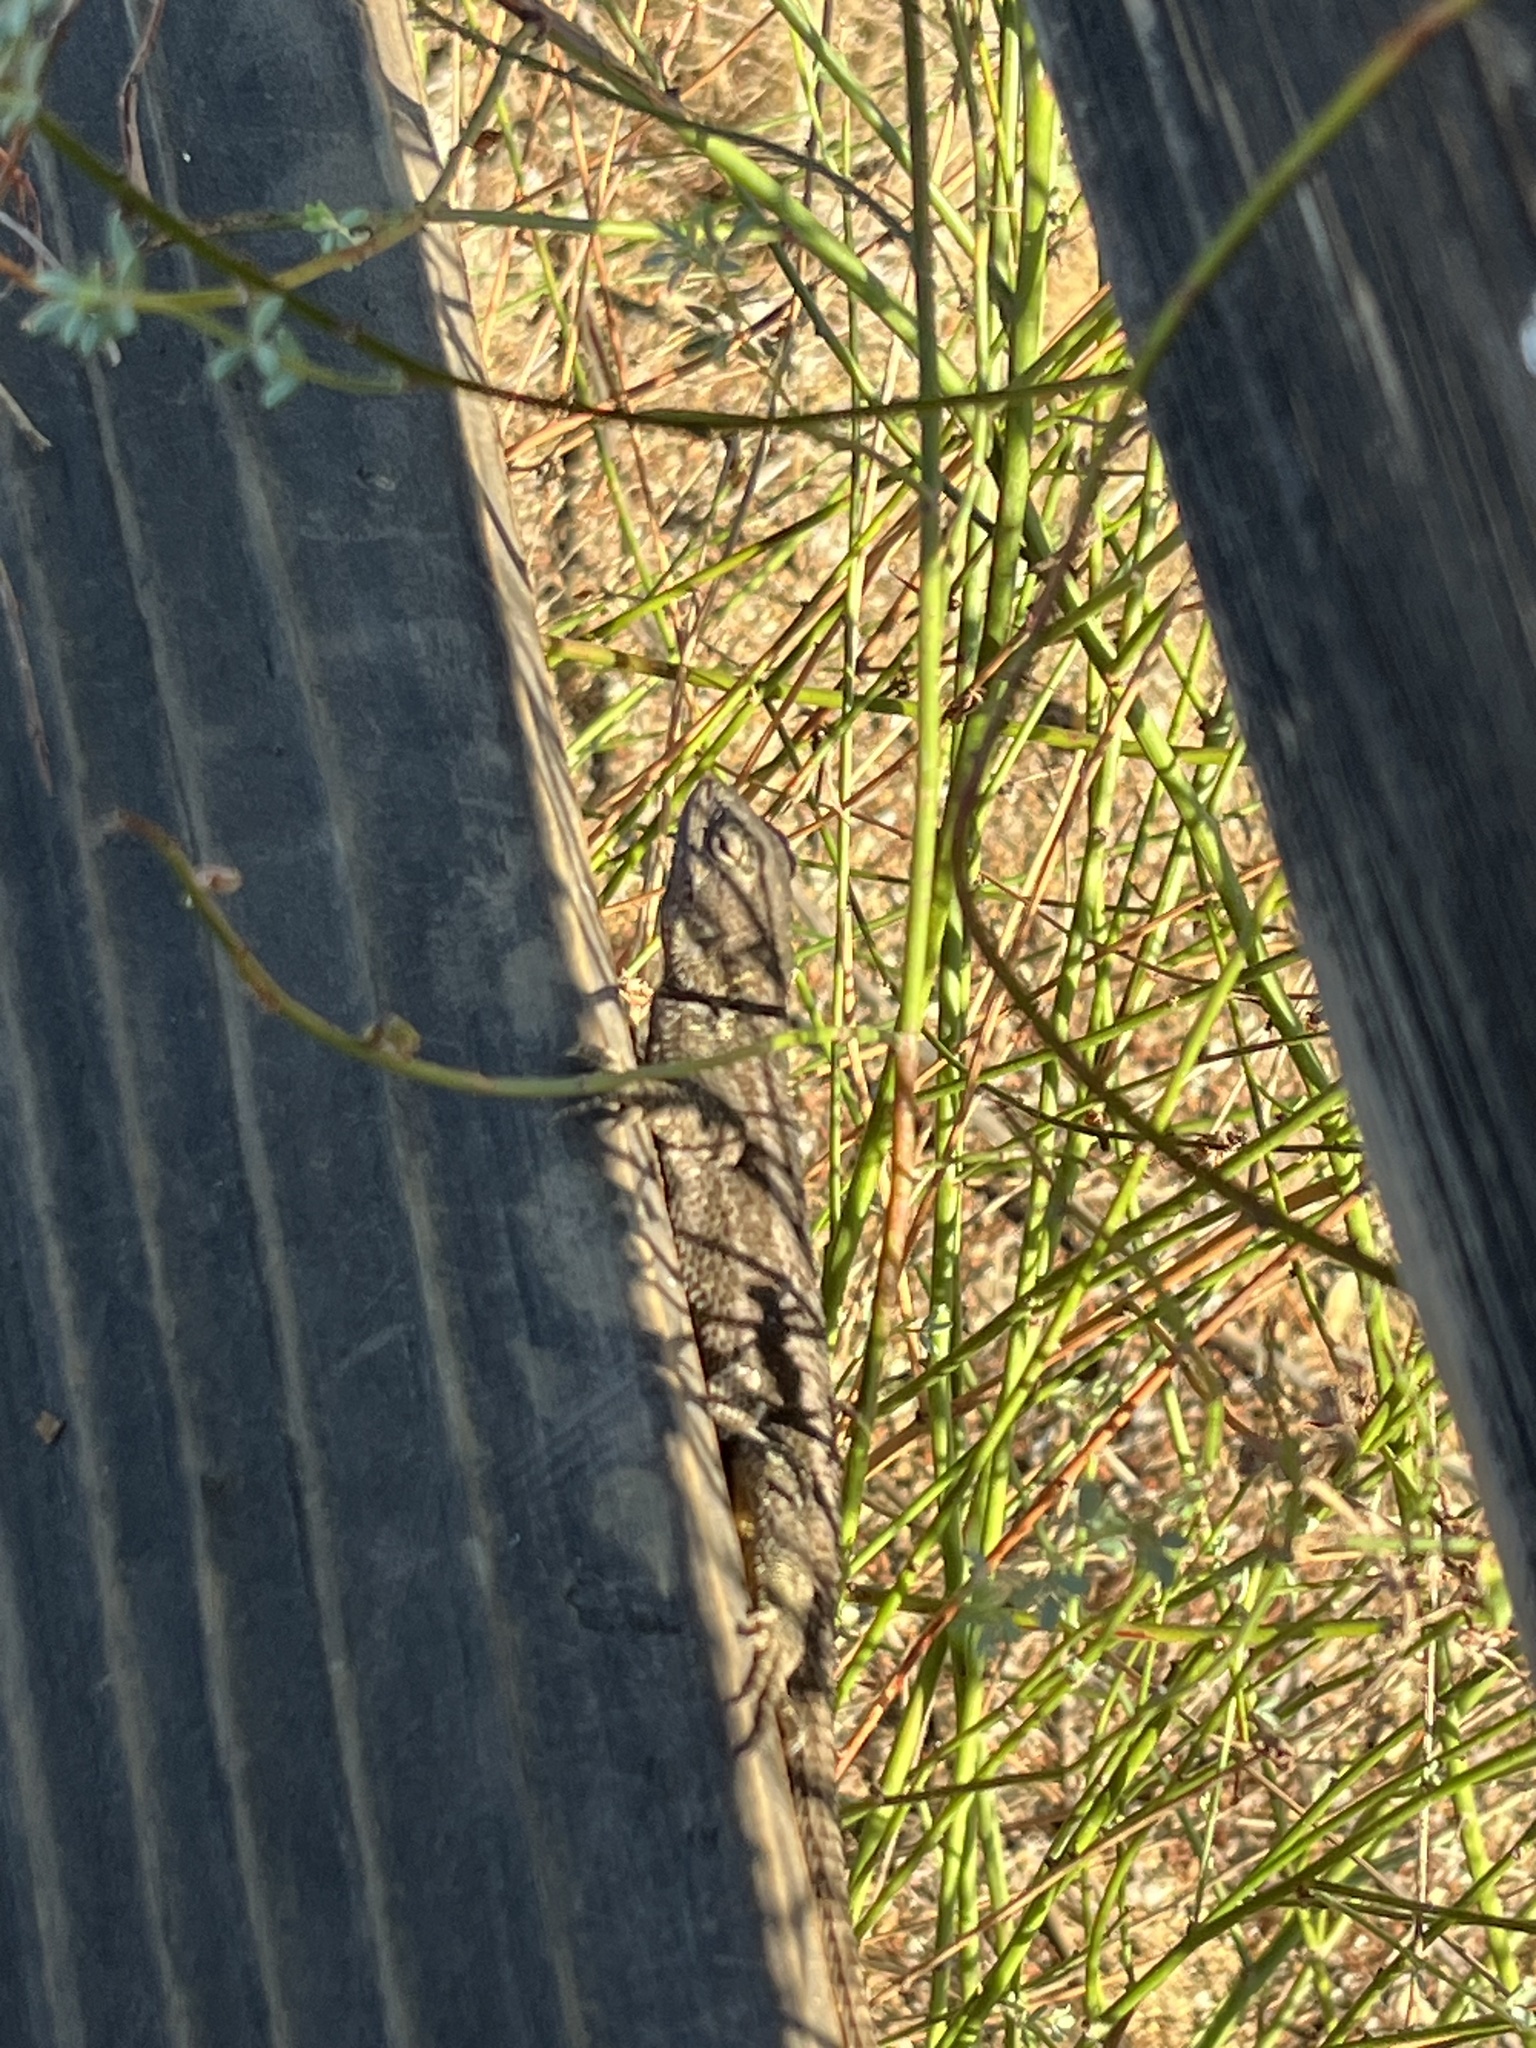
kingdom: Animalia
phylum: Chordata
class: Squamata
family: Phrynosomatidae
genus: Sceloporus
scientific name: Sceloporus occidentalis
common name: Western fence lizard
